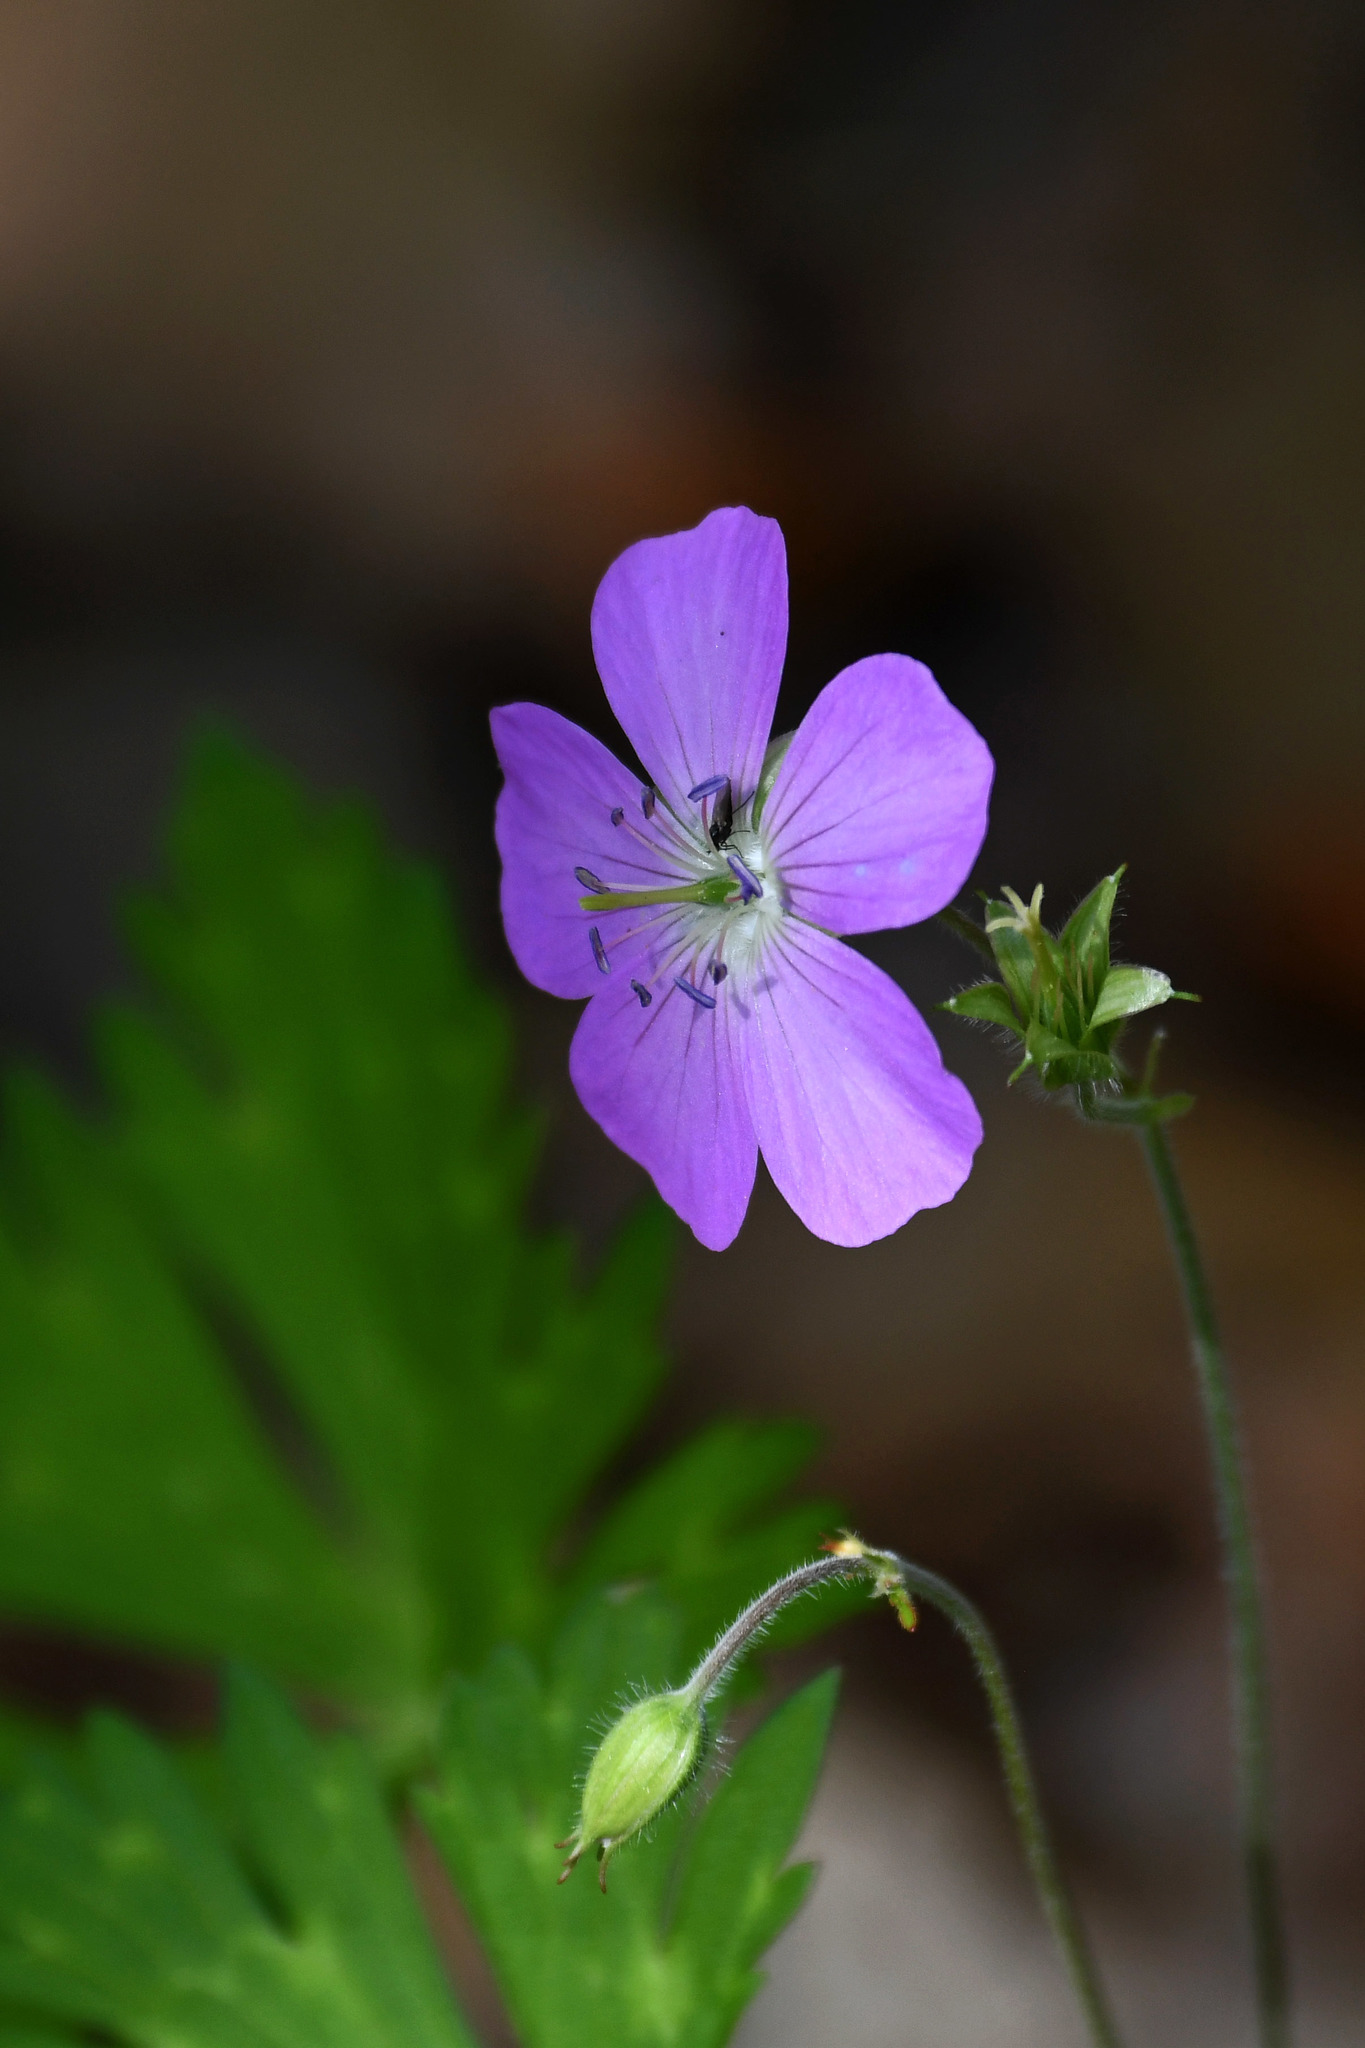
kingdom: Plantae
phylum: Tracheophyta
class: Magnoliopsida
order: Geraniales
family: Geraniaceae
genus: Geranium
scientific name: Geranium maculatum
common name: Spotted geranium
